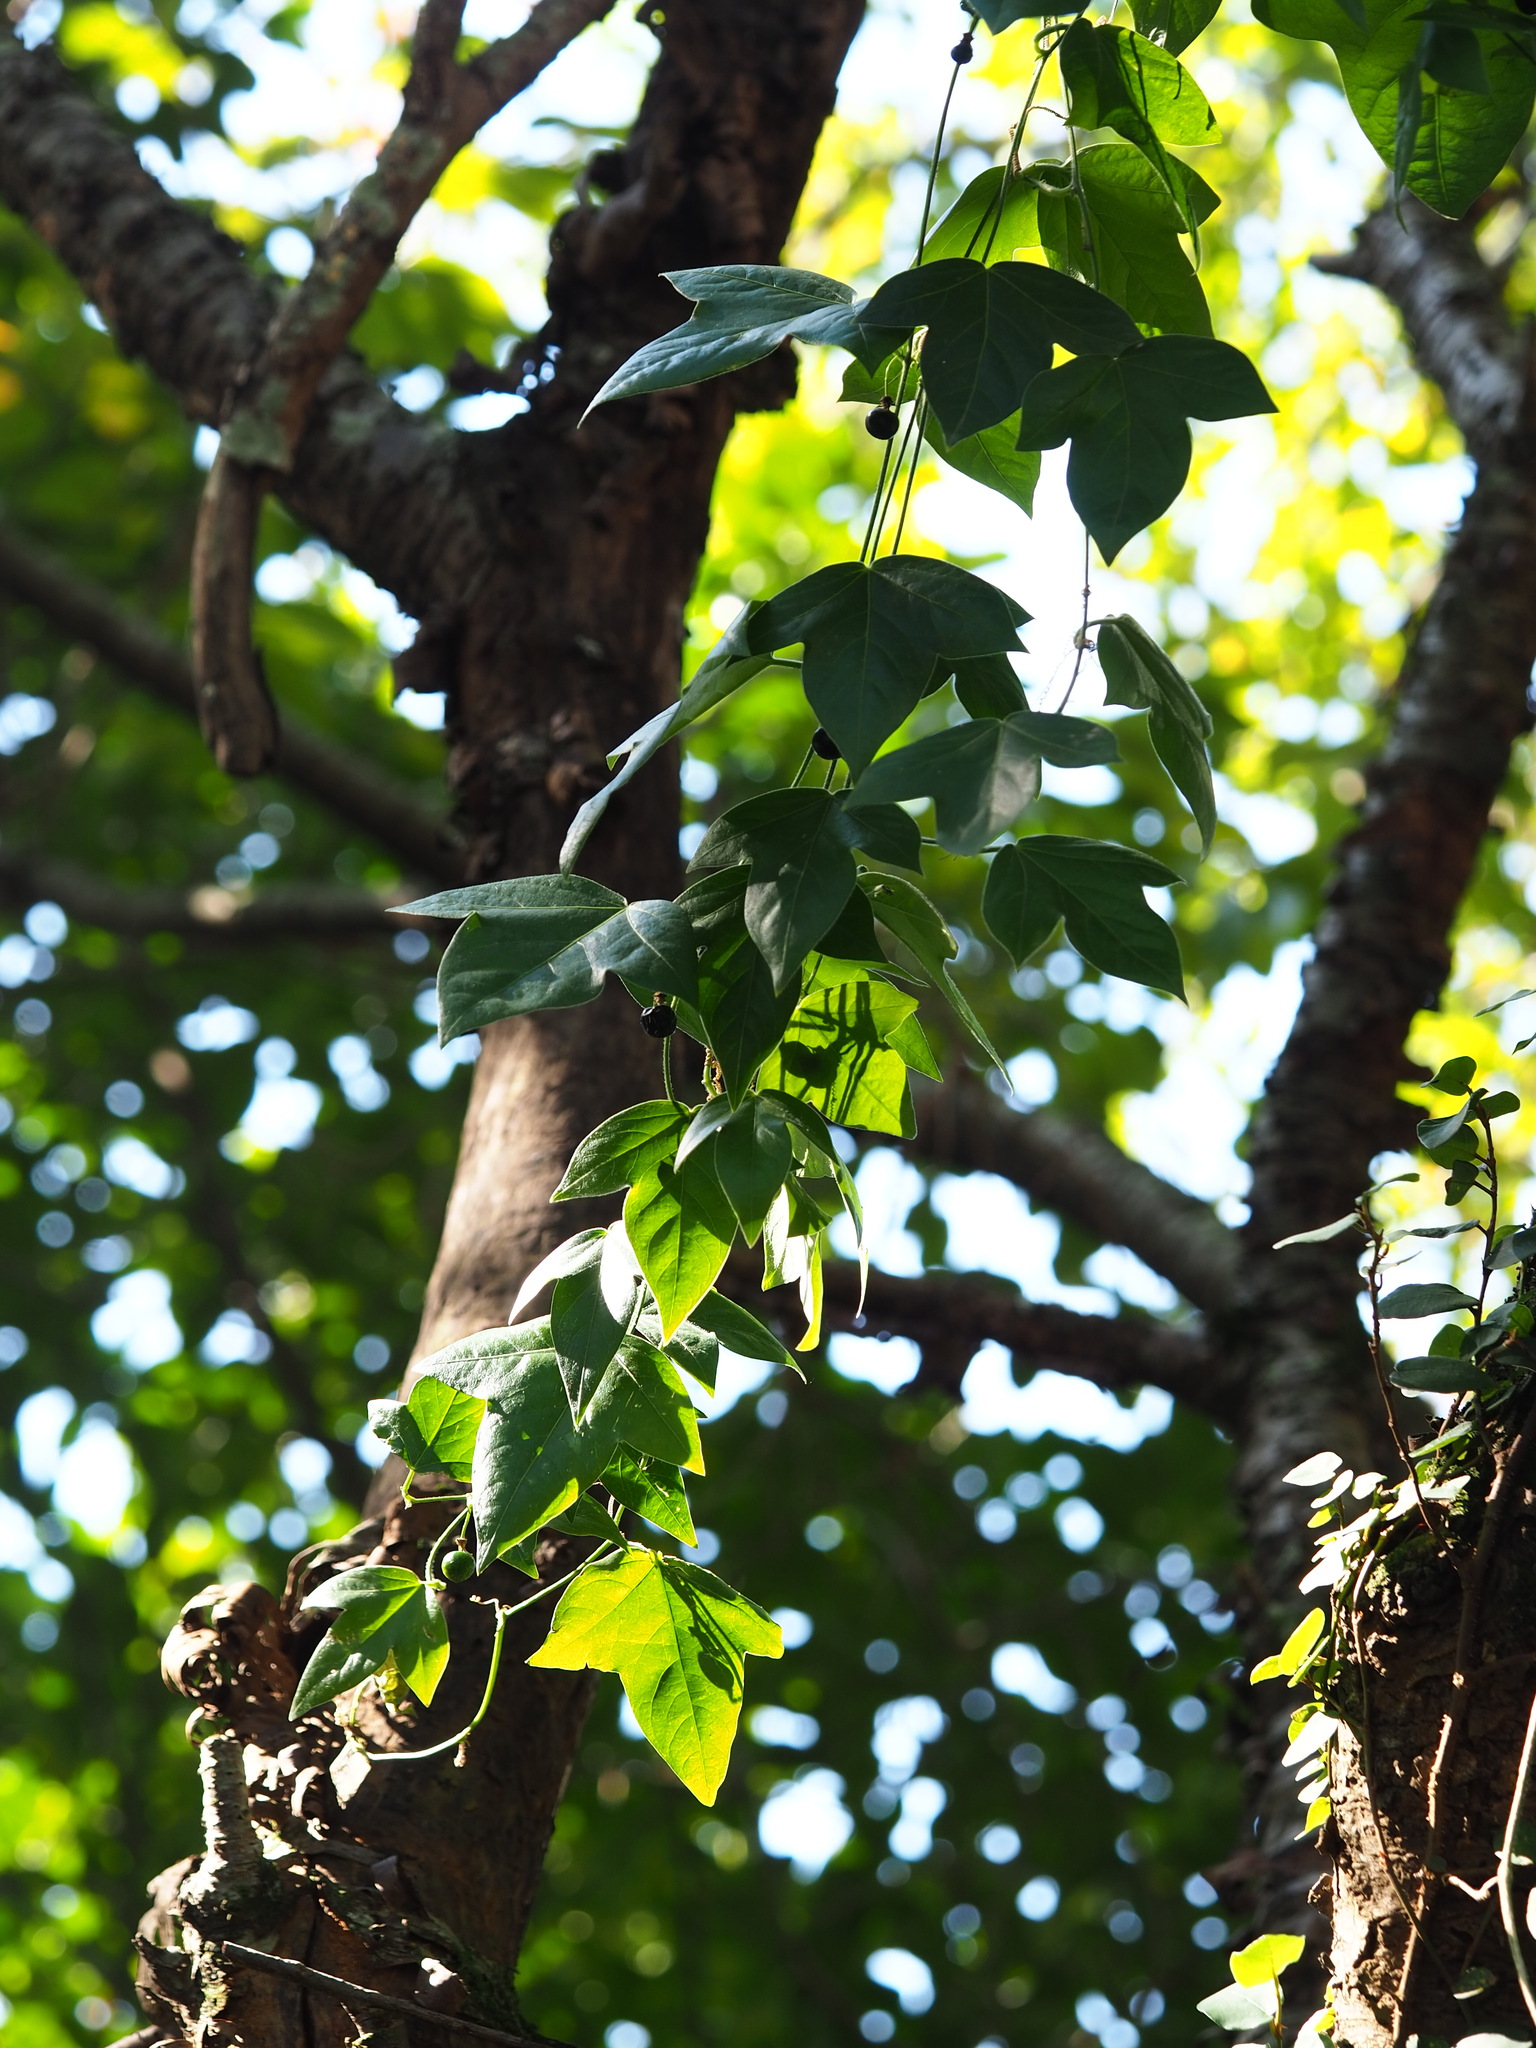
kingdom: Plantae
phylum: Tracheophyta
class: Magnoliopsida
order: Malpighiales
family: Passifloraceae
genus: Passiflora
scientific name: Passiflora suberosa
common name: Wild passionfruit
